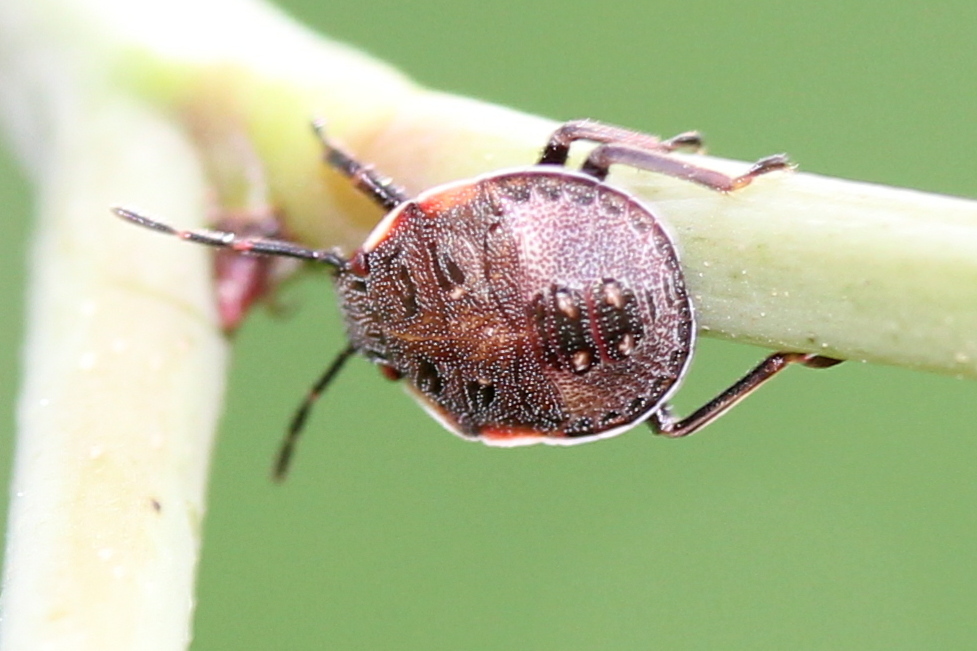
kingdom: Animalia
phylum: Arthropoda
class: Insecta
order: Hemiptera
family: Pentatomidae
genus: Dendrocoris
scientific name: Dendrocoris humeralis
